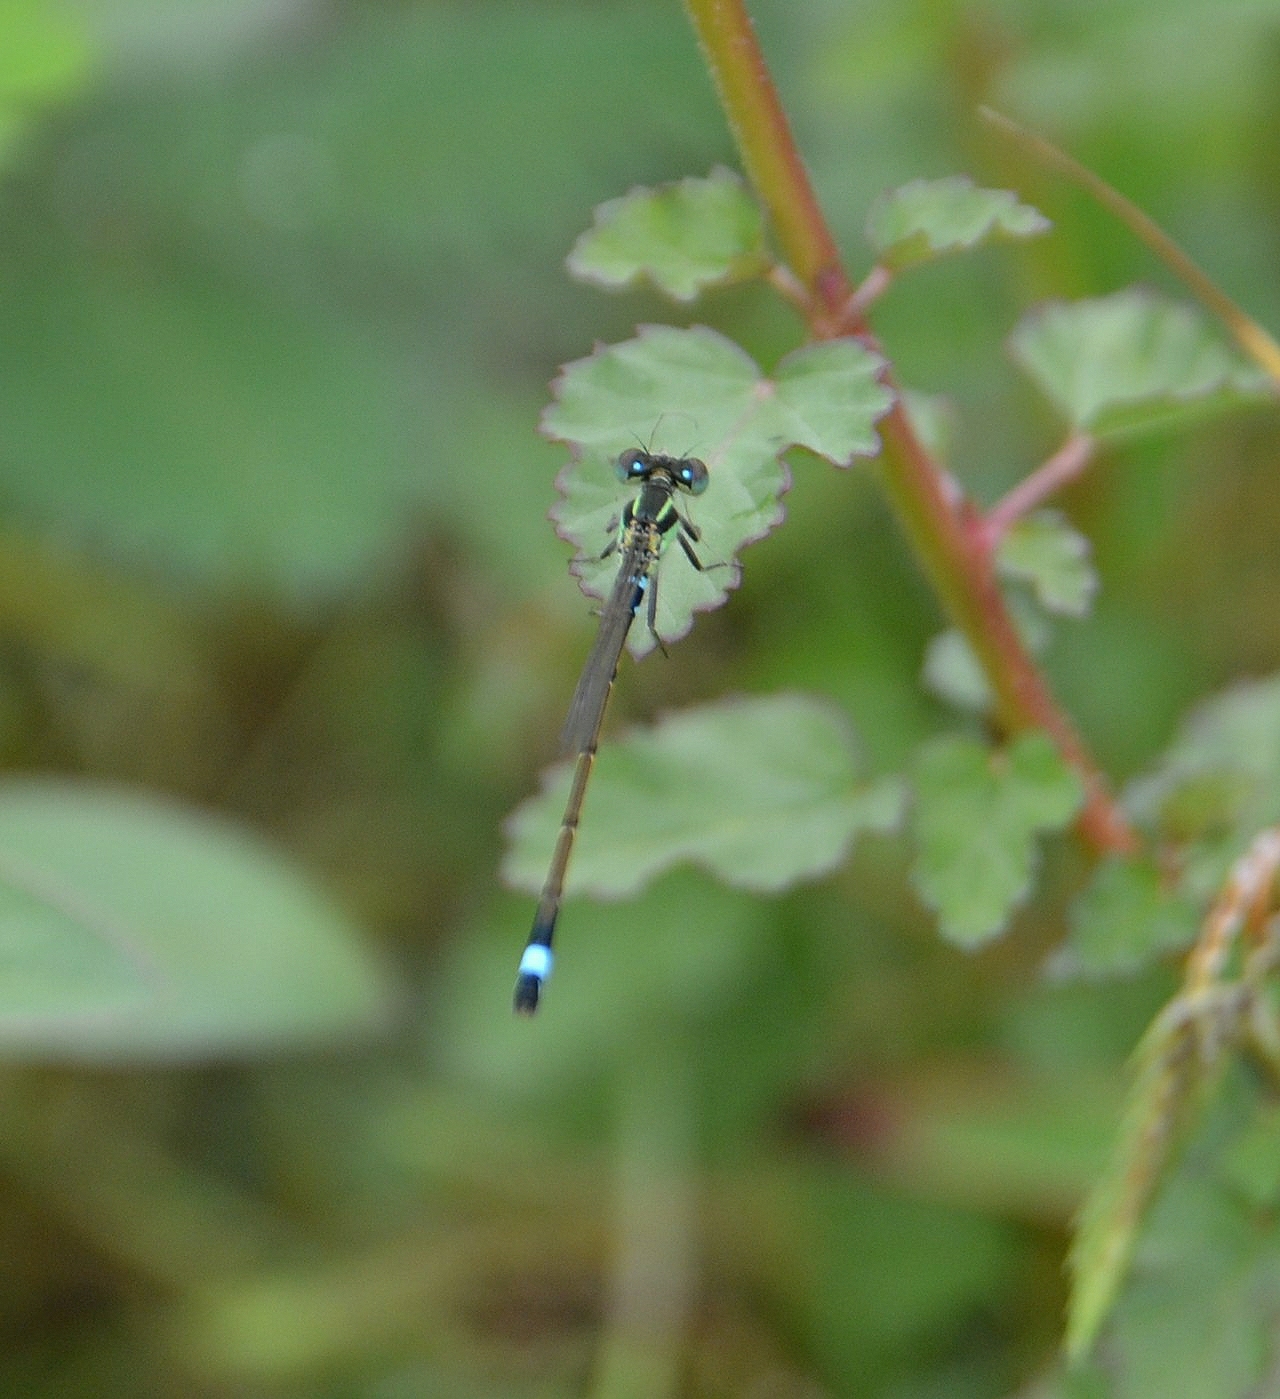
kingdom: Animalia
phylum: Arthropoda
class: Insecta
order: Odonata
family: Coenagrionidae
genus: Ischnura
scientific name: Ischnura senegalensis
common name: Tropical bluetail
